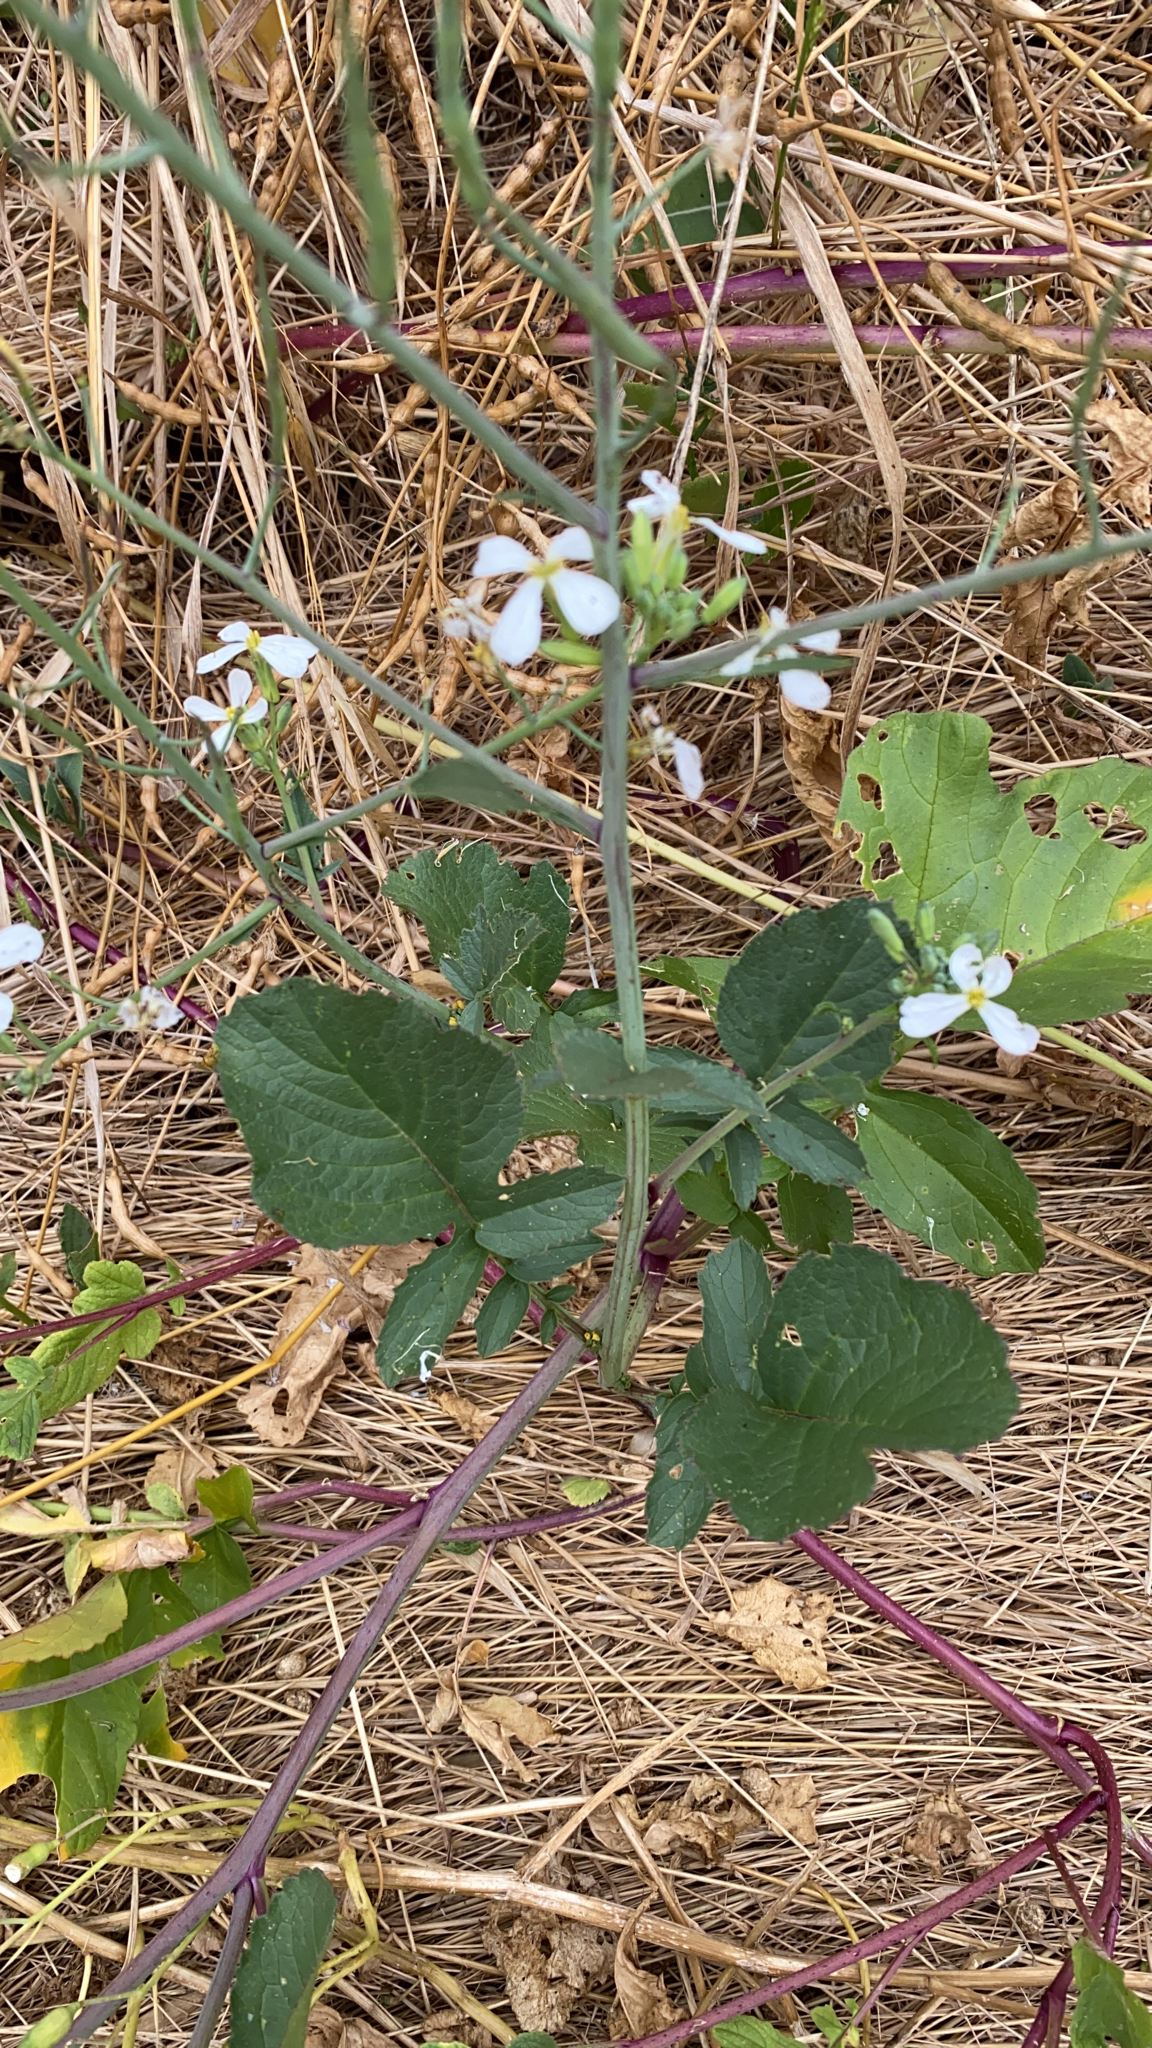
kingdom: Plantae
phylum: Tracheophyta
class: Magnoliopsida
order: Brassicales
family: Brassicaceae
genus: Raphanus
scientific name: Raphanus sativus
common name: Cultivated radish
